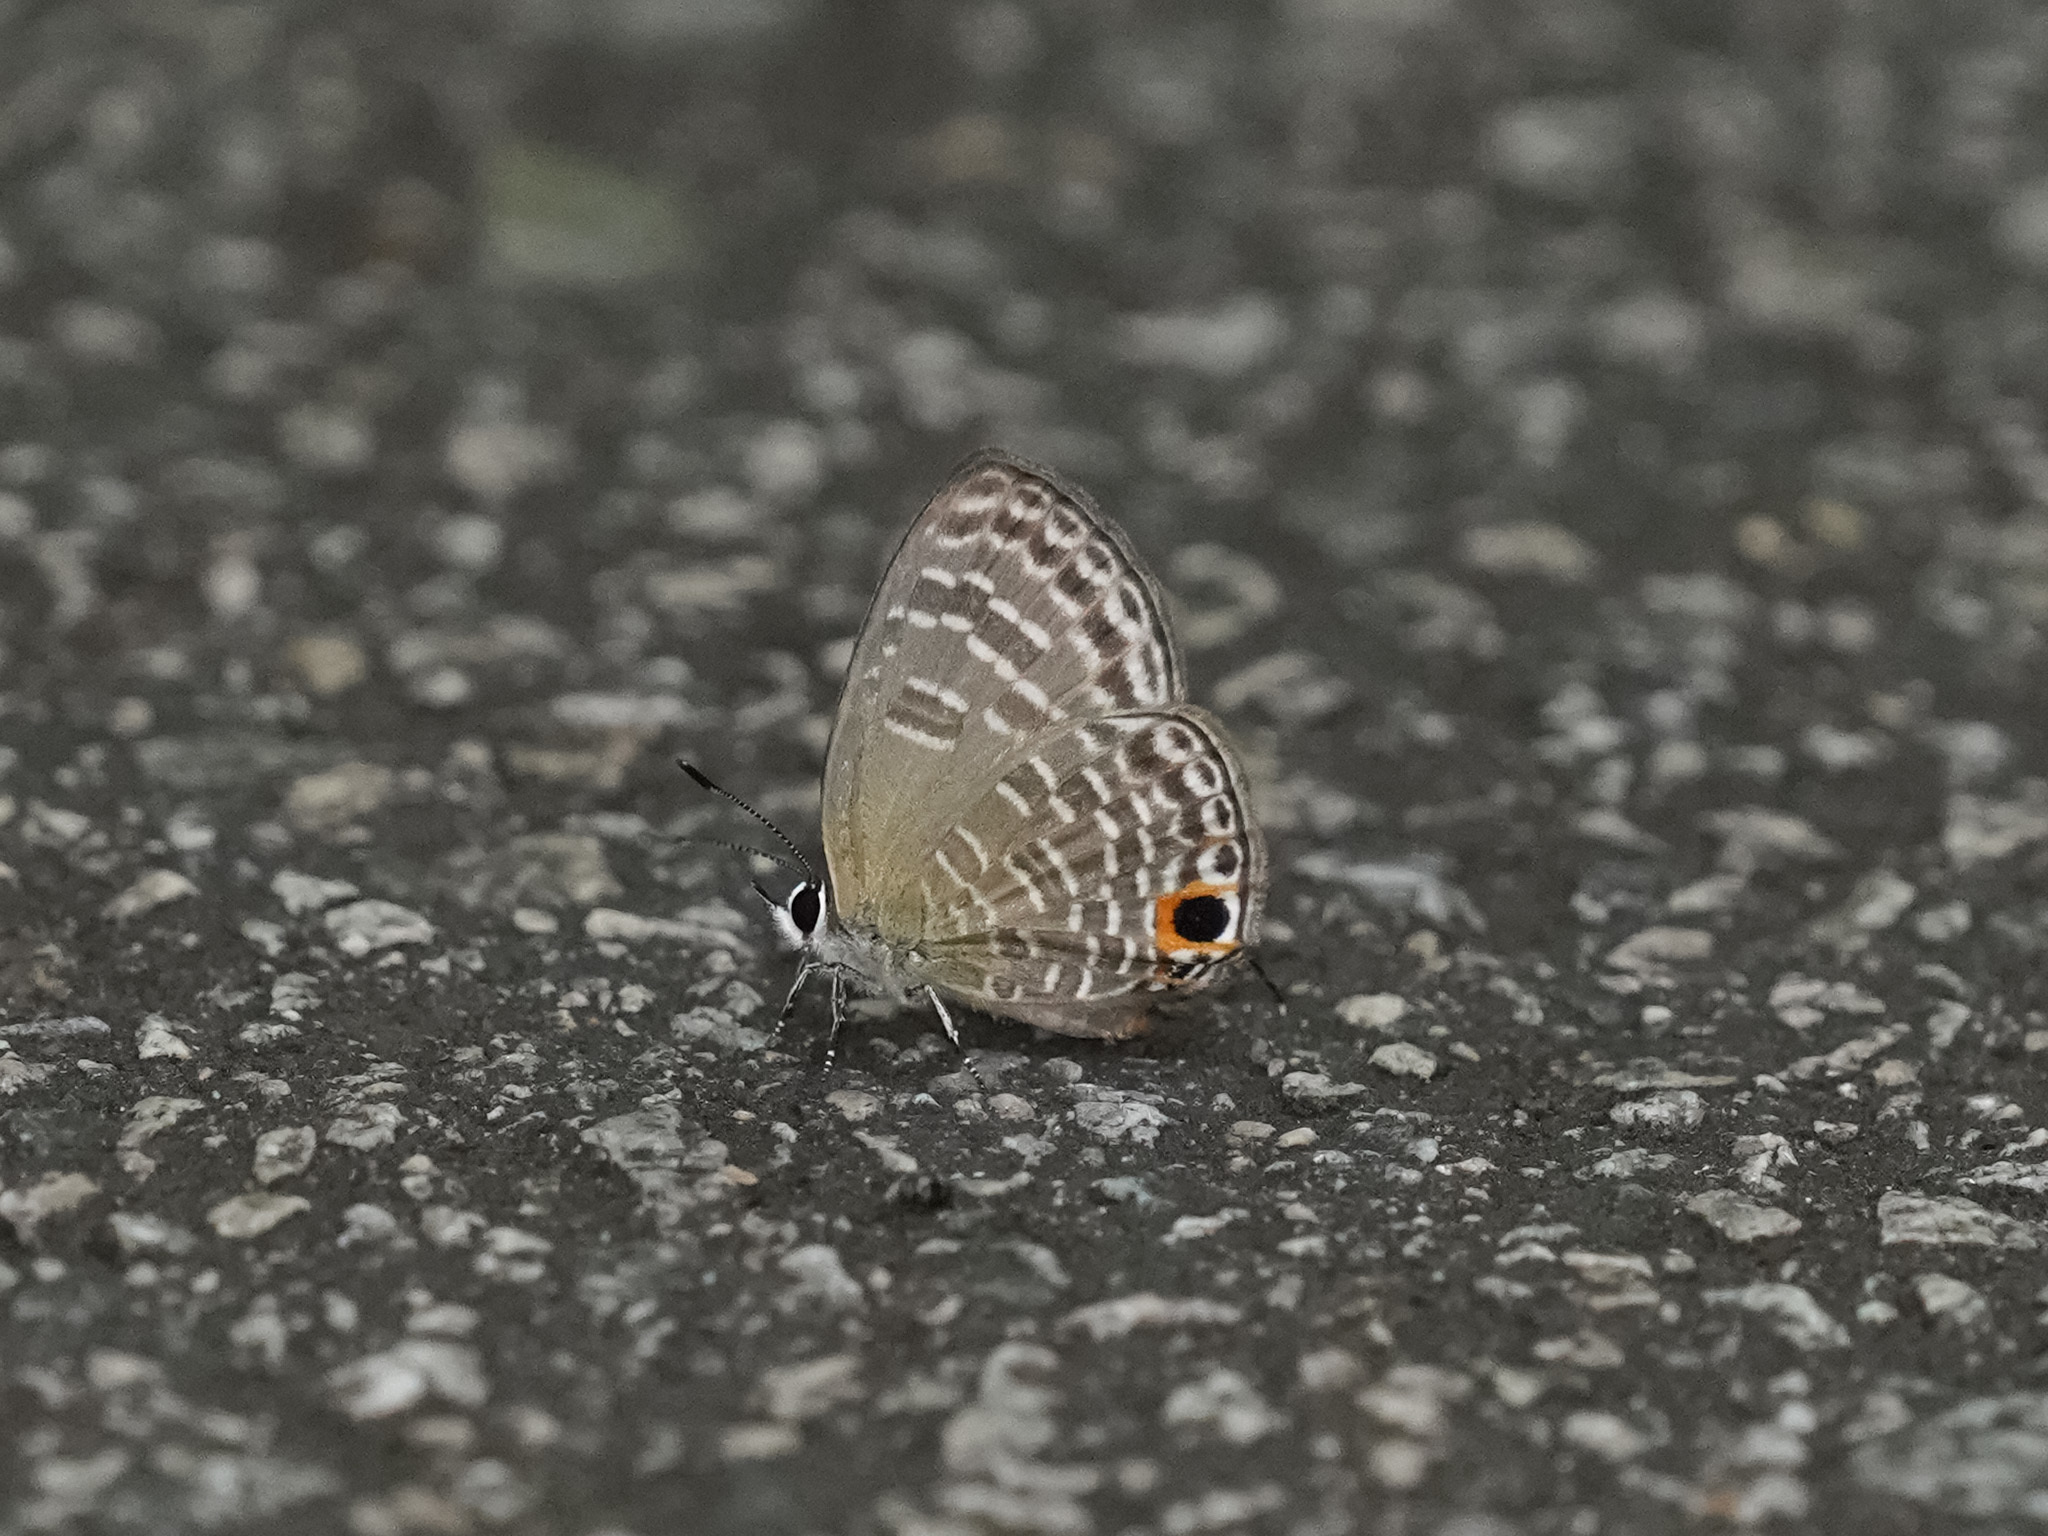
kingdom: Animalia
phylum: Arthropoda
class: Insecta
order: Lepidoptera
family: Lycaenidae
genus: Nacaduba
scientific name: Nacaduba sanaya
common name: Jewel fourline blue
